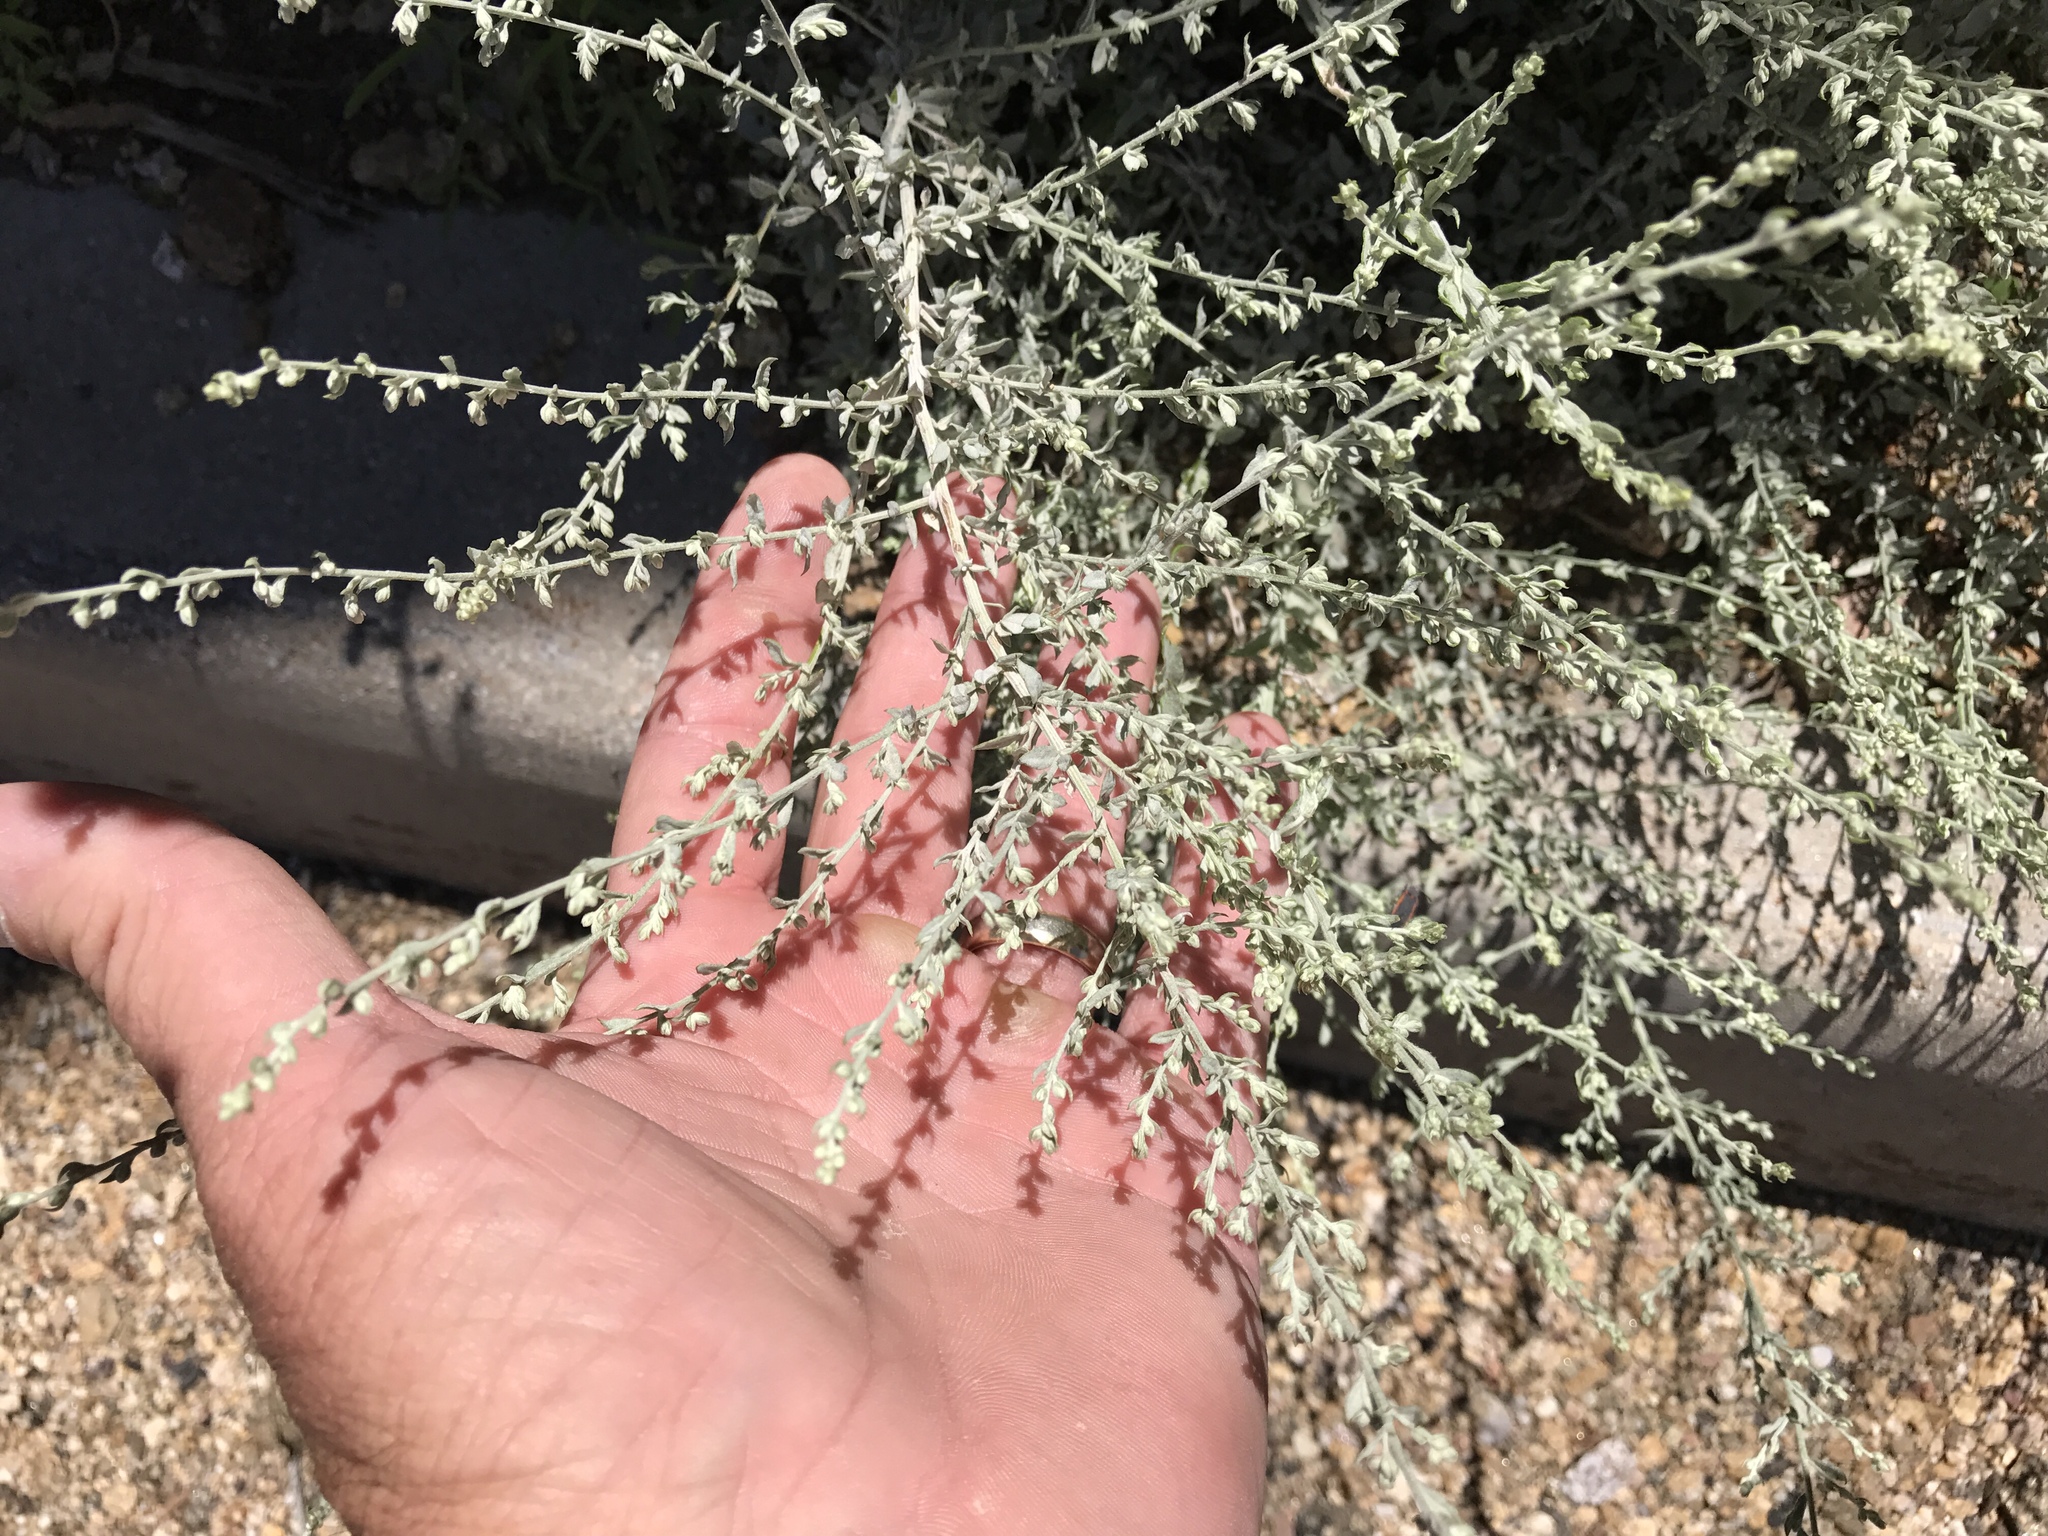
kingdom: Plantae
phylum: Tracheophyta
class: Magnoliopsida
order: Asterales
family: Asteraceae
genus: Artemisia
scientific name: Artemisia ludoviciana
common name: Western mugwort
